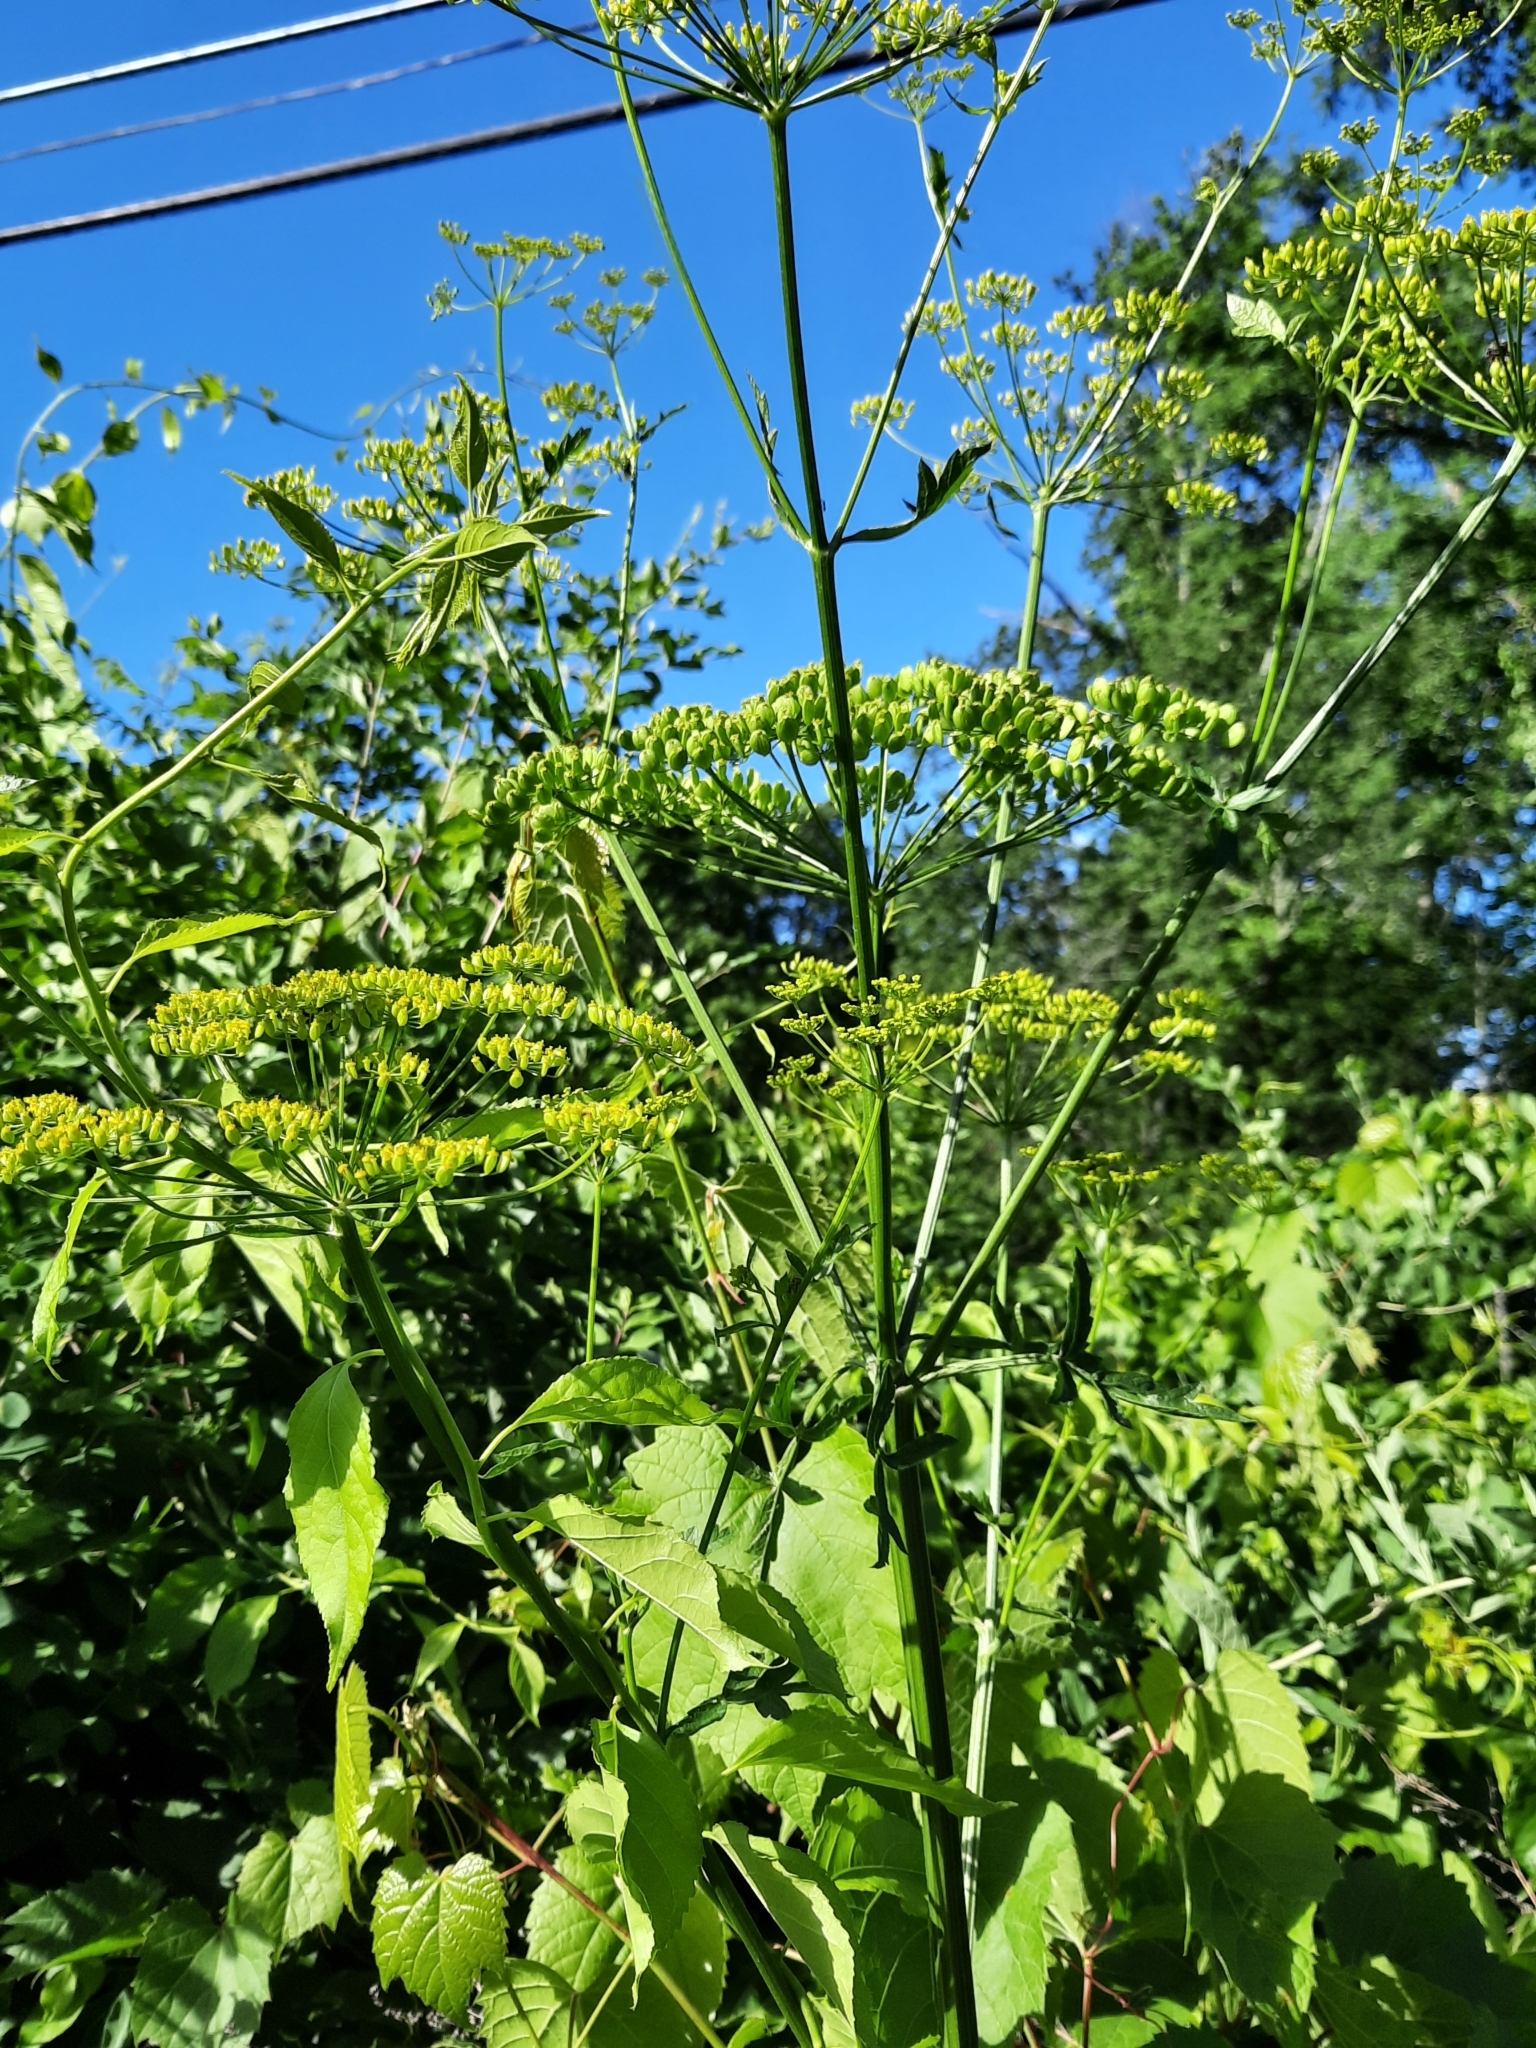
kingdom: Plantae
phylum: Tracheophyta
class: Magnoliopsida
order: Apiales
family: Apiaceae
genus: Pastinaca
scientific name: Pastinaca sativa
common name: Wild parsnip
